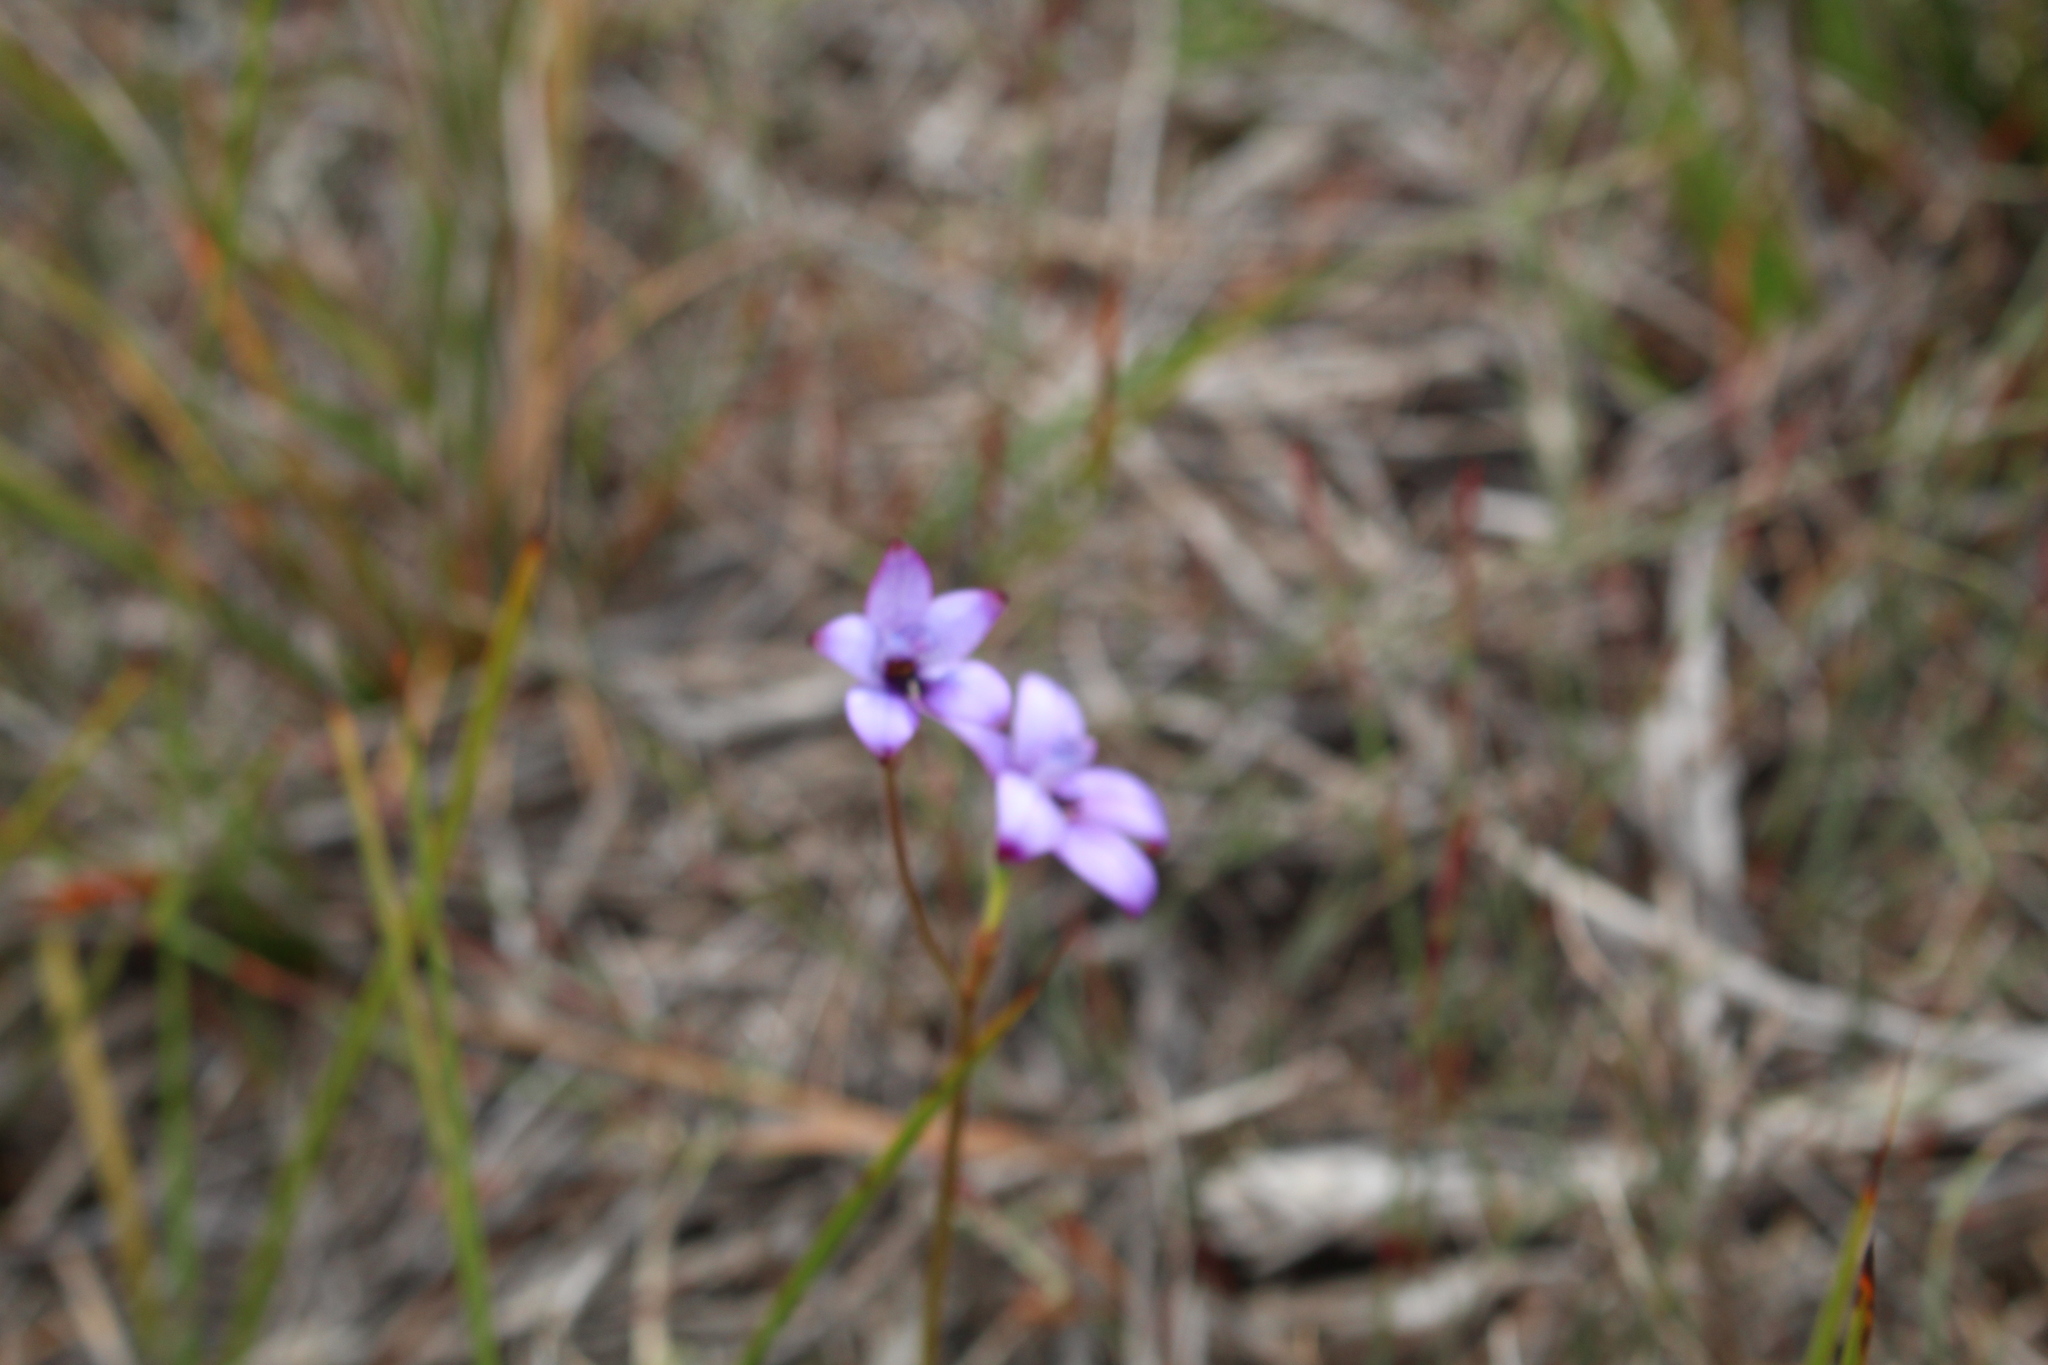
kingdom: Plantae
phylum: Tracheophyta
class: Liliopsida
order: Asparagales
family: Orchidaceae
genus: Caladenia
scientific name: Caladenia brunonis
